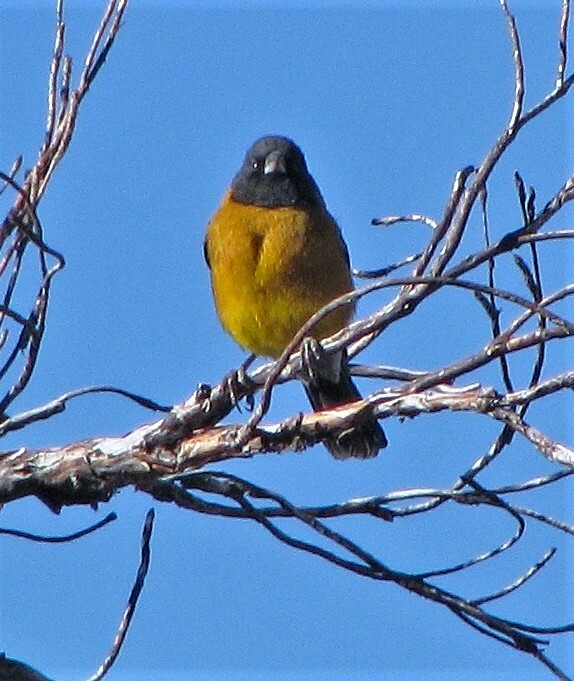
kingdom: Animalia
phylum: Chordata
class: Aves
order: Passeriformes
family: Thraupidae
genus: Phrygilus
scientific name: Phrygilus atriceps
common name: Black-hooded sierra finch
